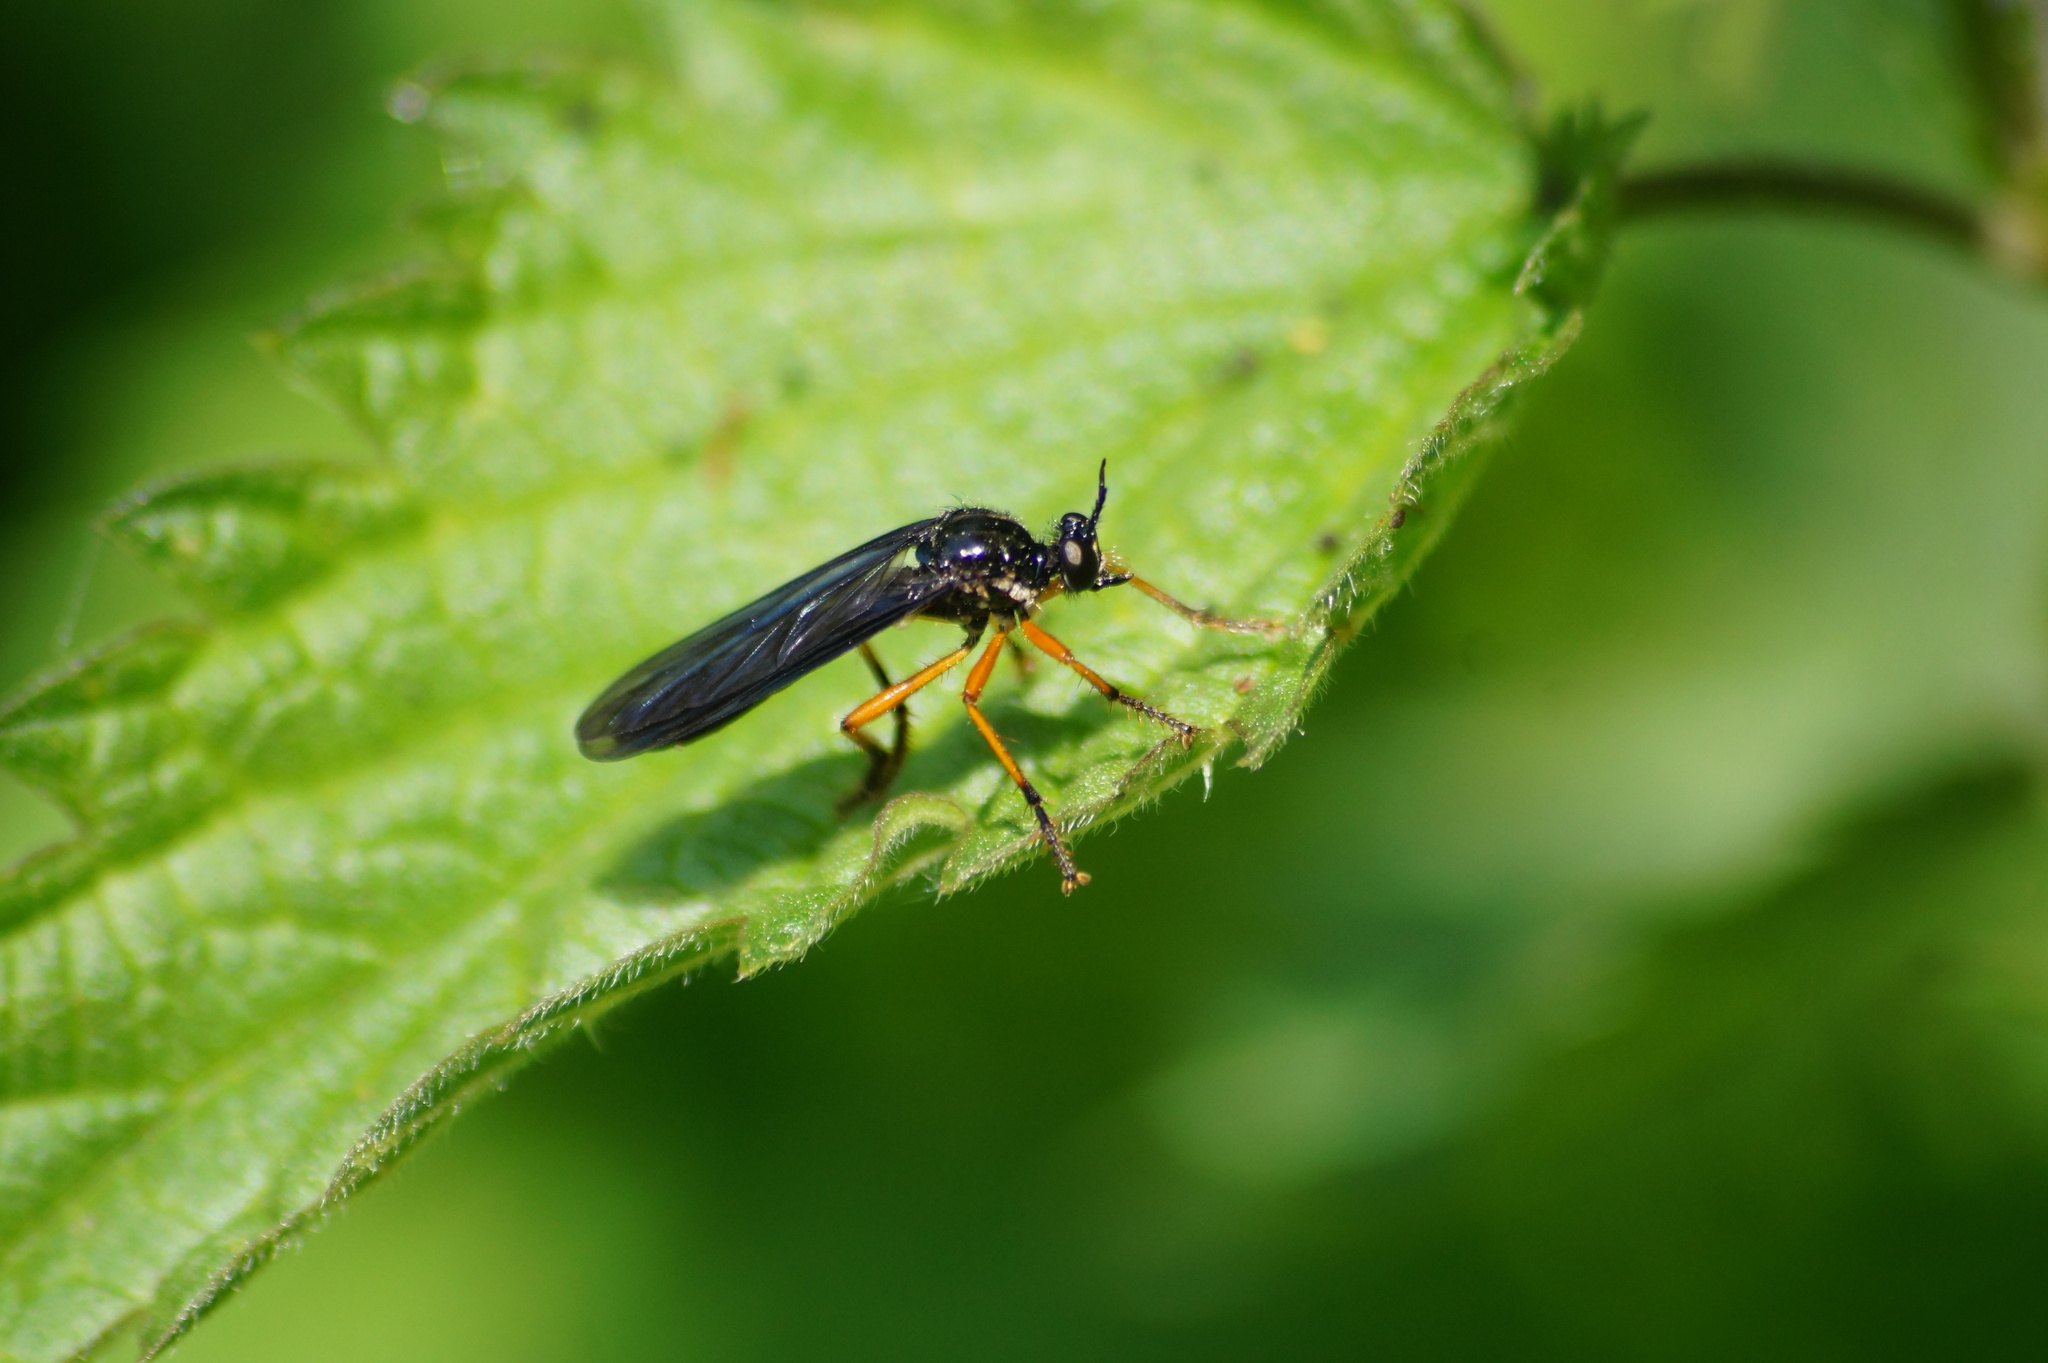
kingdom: Animalia
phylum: Arthropoda
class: Insecta
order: Diptera
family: Asilidae
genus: Dioctria
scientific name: Dioctria oelandica
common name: Orange-legged robberfly
